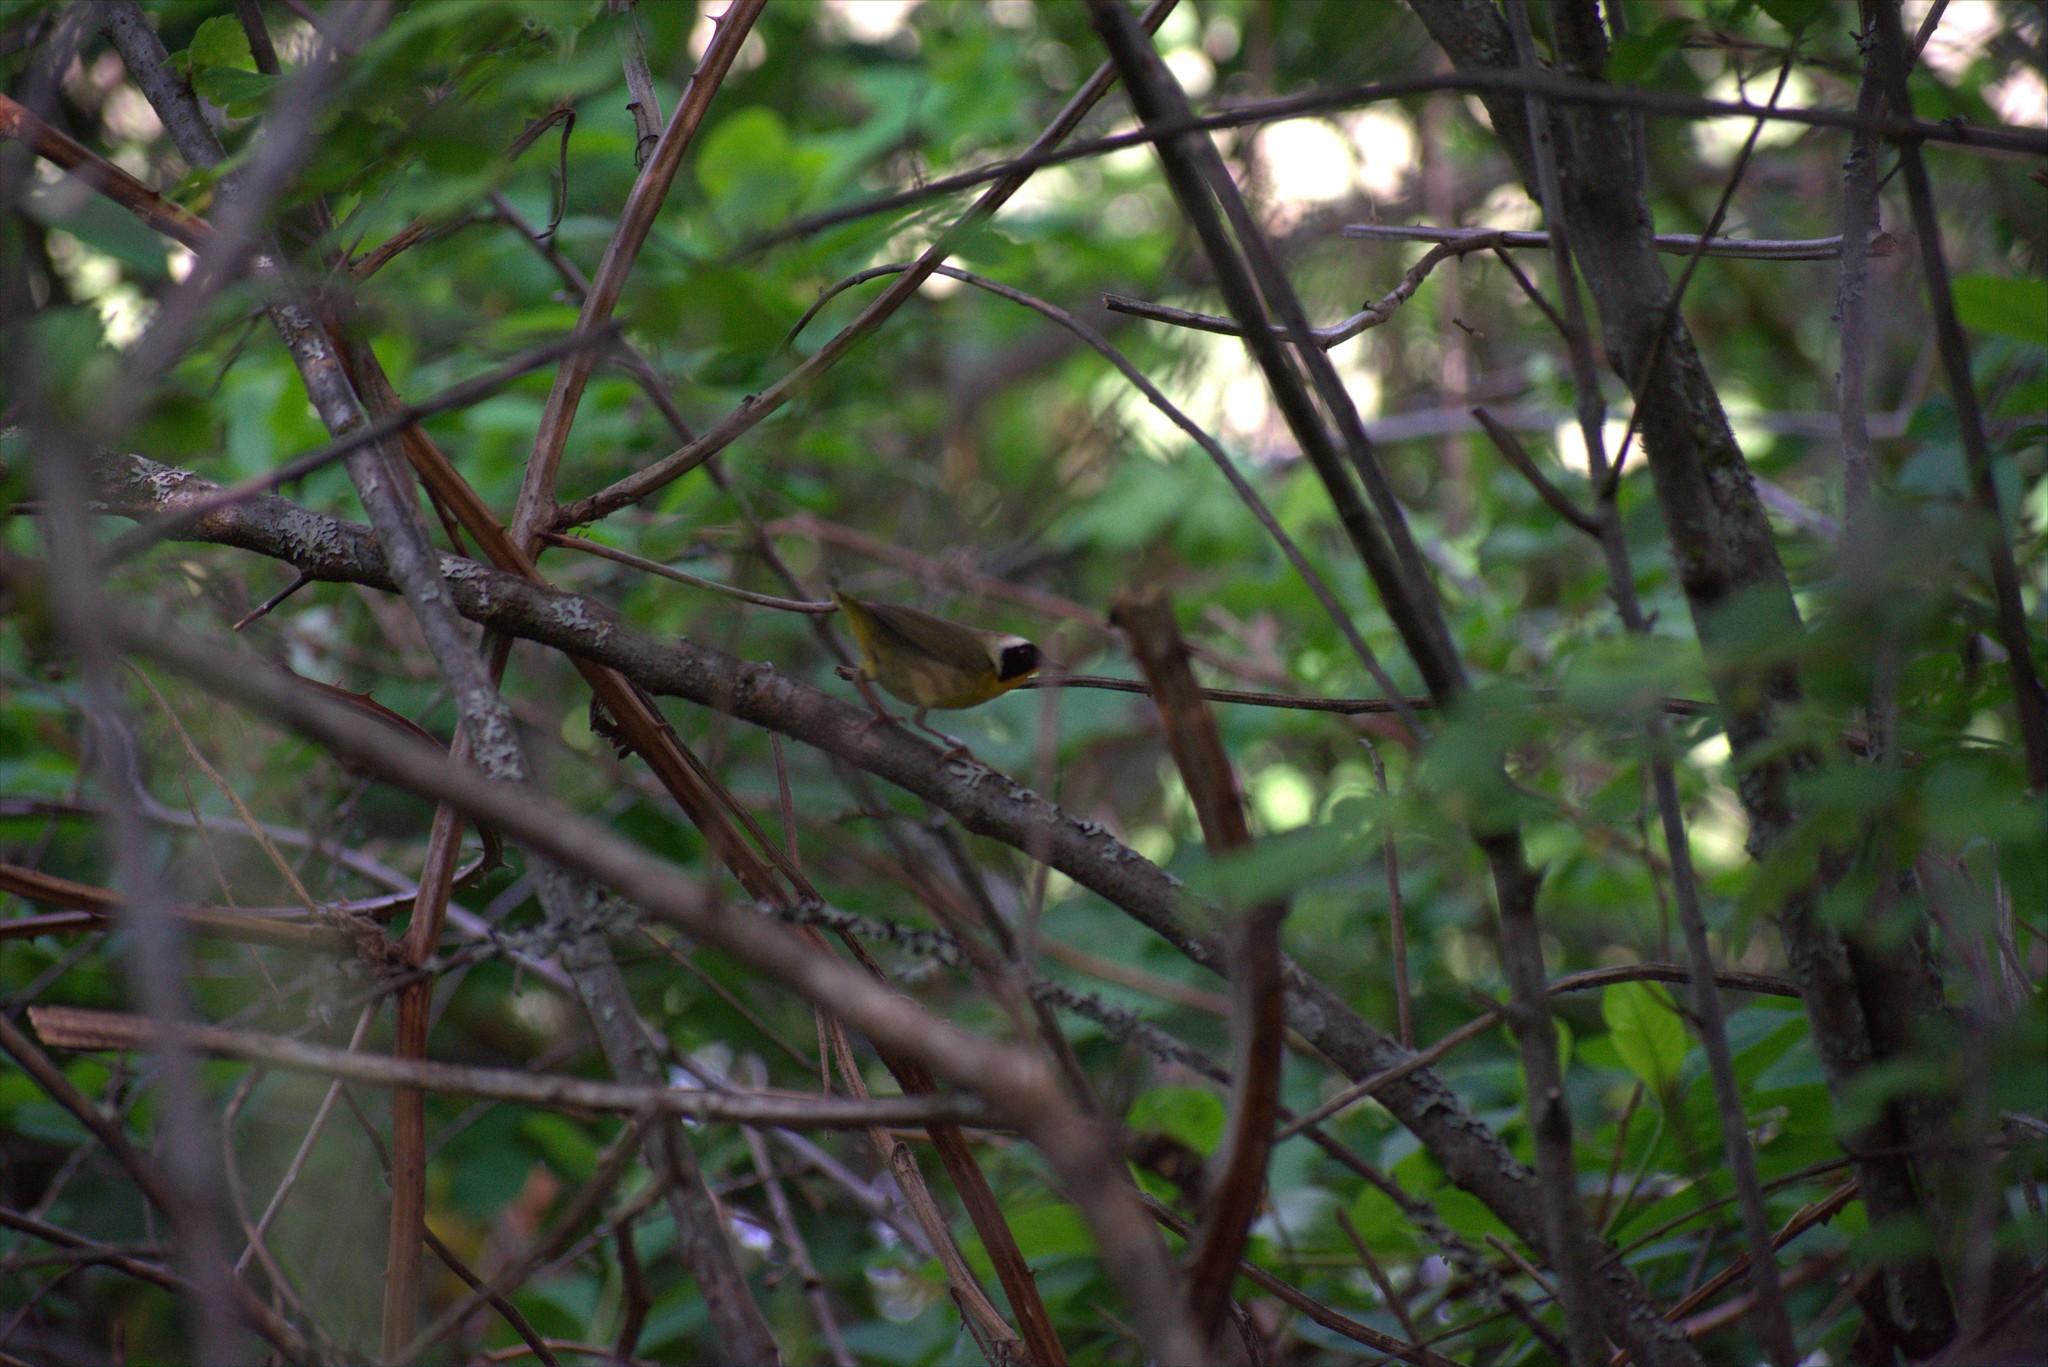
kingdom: Animalia
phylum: Chordata
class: Aves
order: Passeriformes
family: Parulidae
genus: Geothlypis
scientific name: Geothlypis trichas
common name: Common yellowthroat
